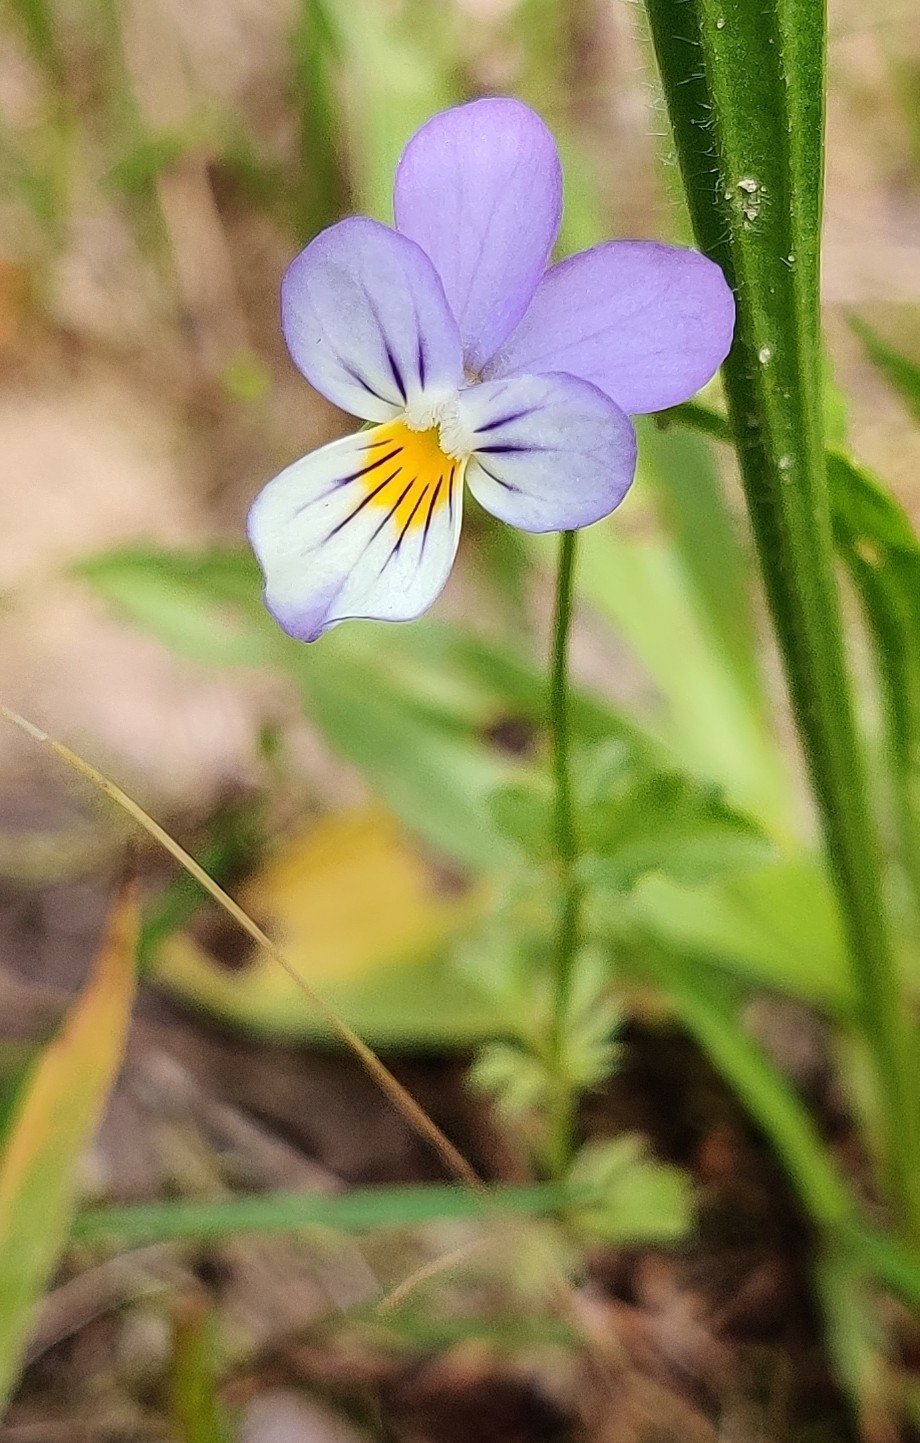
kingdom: Plantae
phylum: Tracheophyta
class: Magnoliopsida
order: Malpighiales
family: Violaceae
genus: Viola
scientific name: Viola tricolor
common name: Pansy
